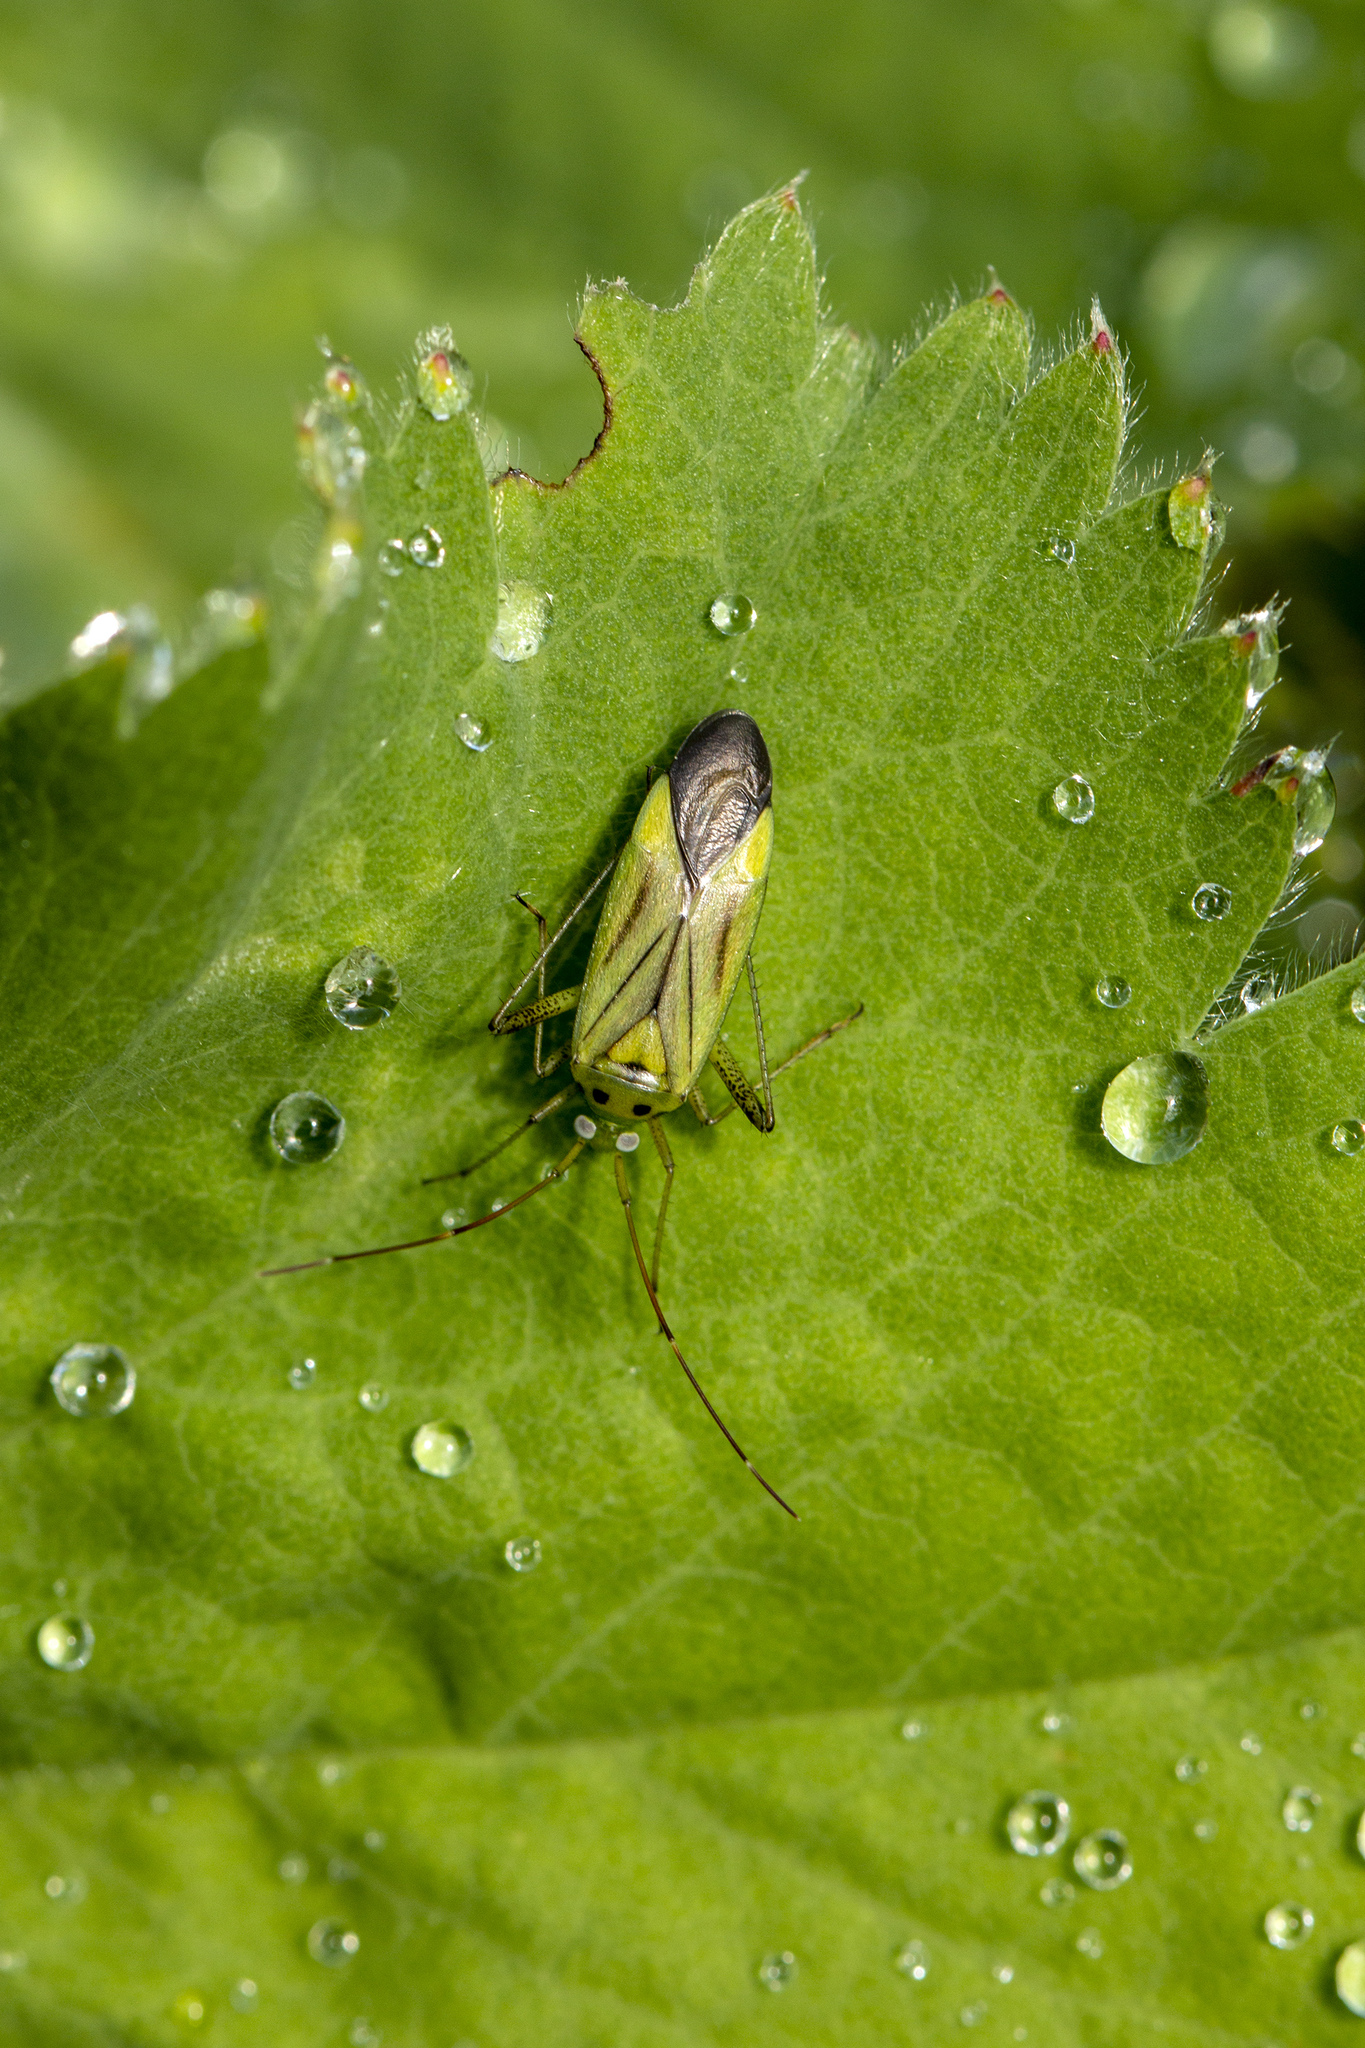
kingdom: Animalia
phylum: Arthropoda
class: Insecta
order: Hemiptera
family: Miridae
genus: Adelphocoris
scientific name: Adelphocoris quadripunctatus
